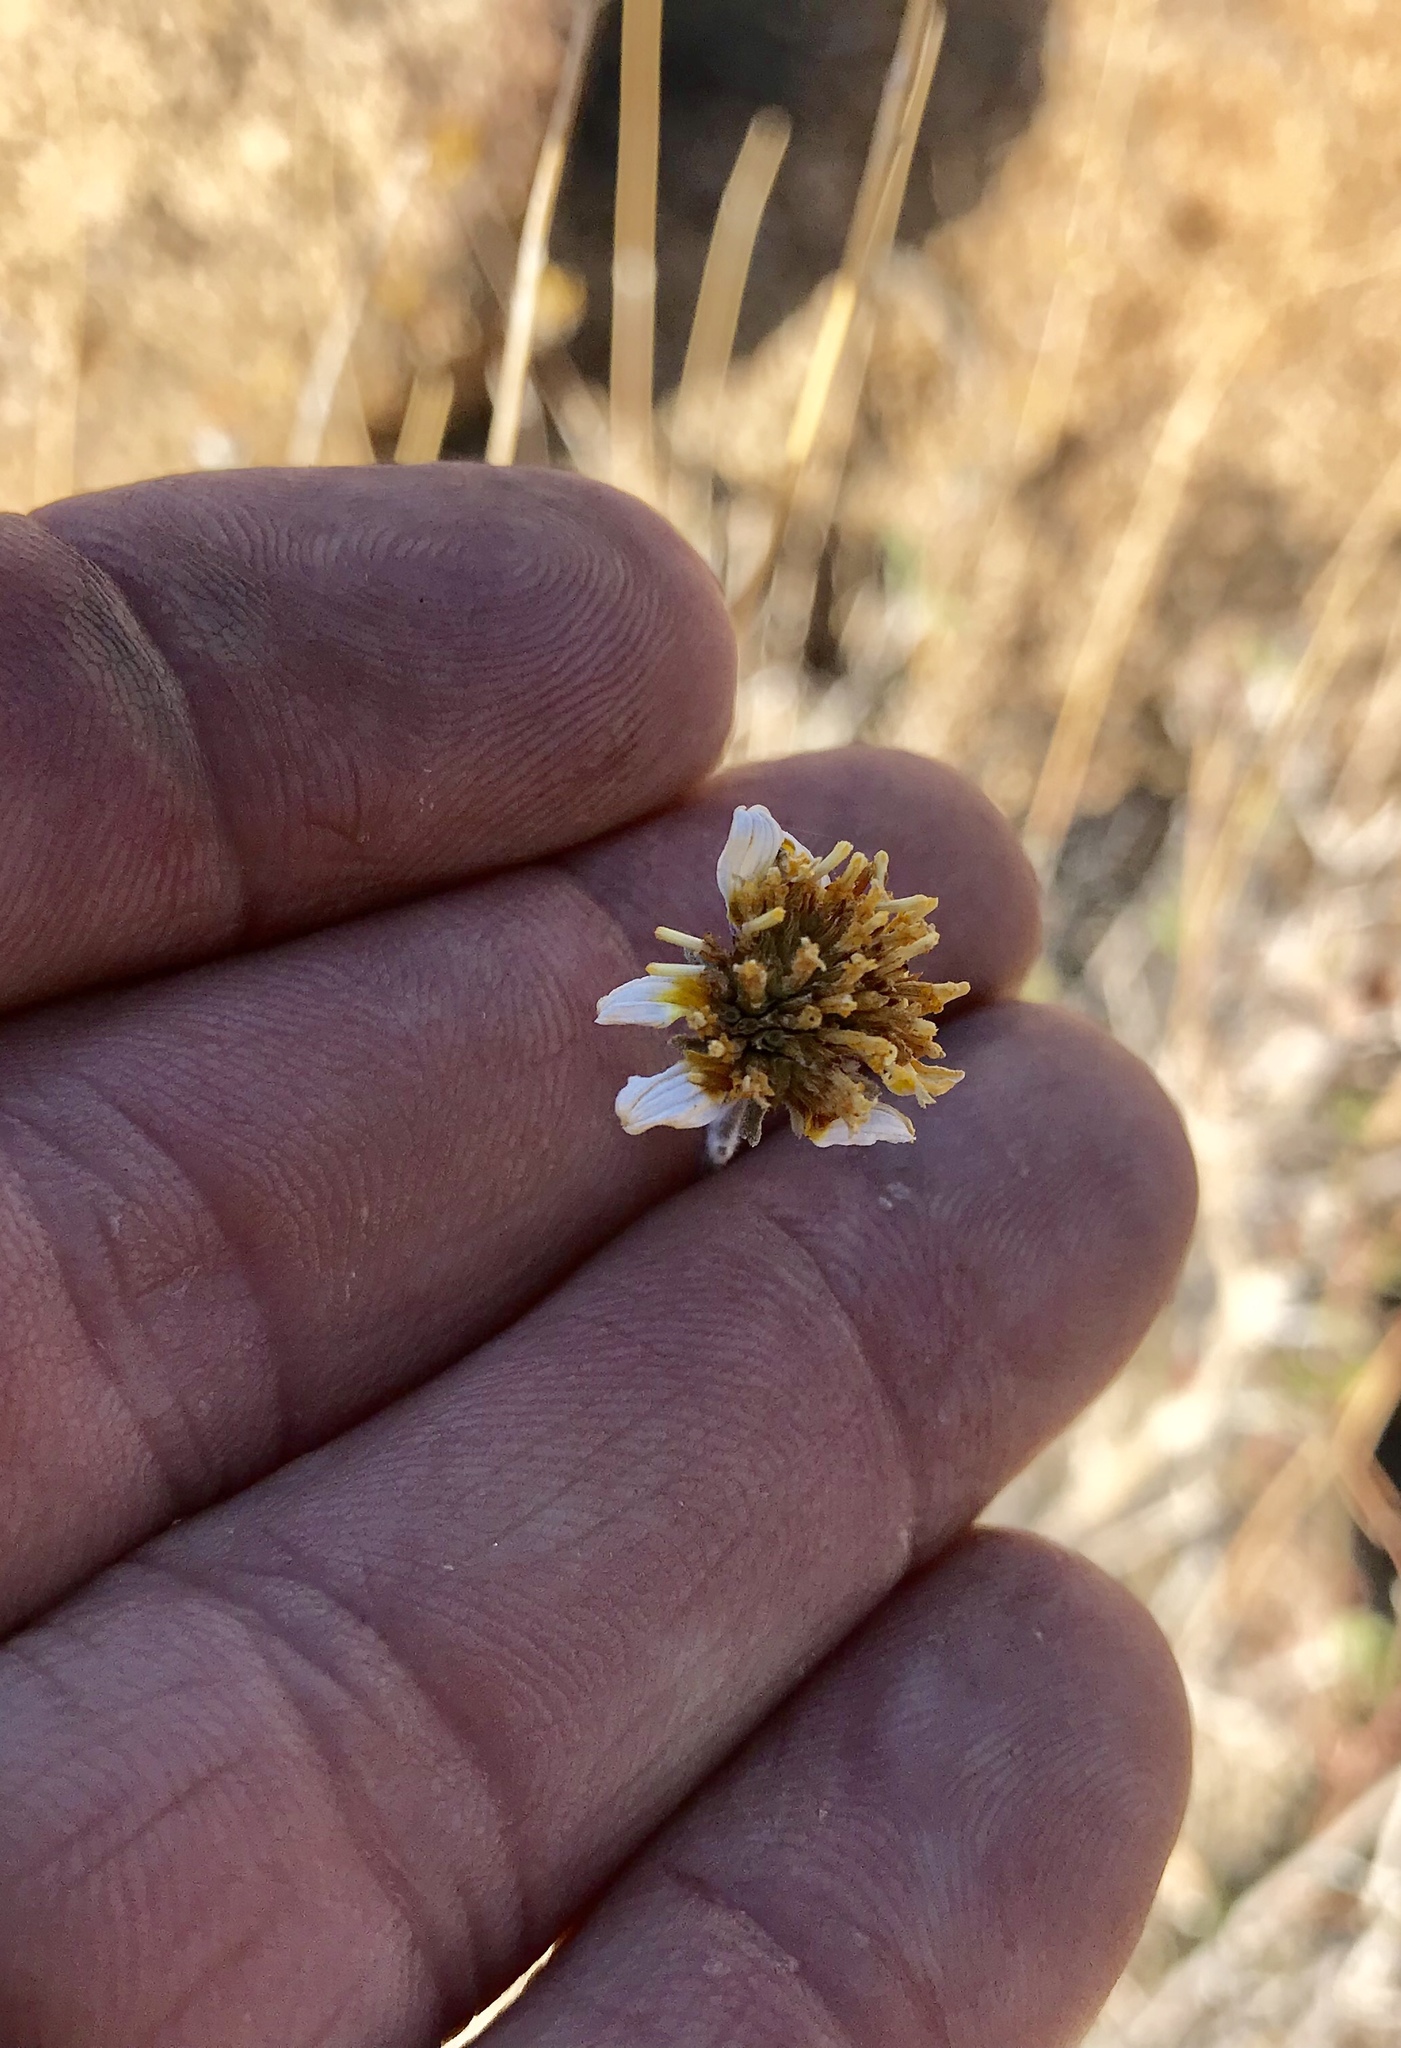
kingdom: Plantae
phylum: Tracheophyta
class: Magnoliopsida
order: Asterales
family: Asteraceae
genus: Bahiopsis
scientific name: Bahiopsis parishii
